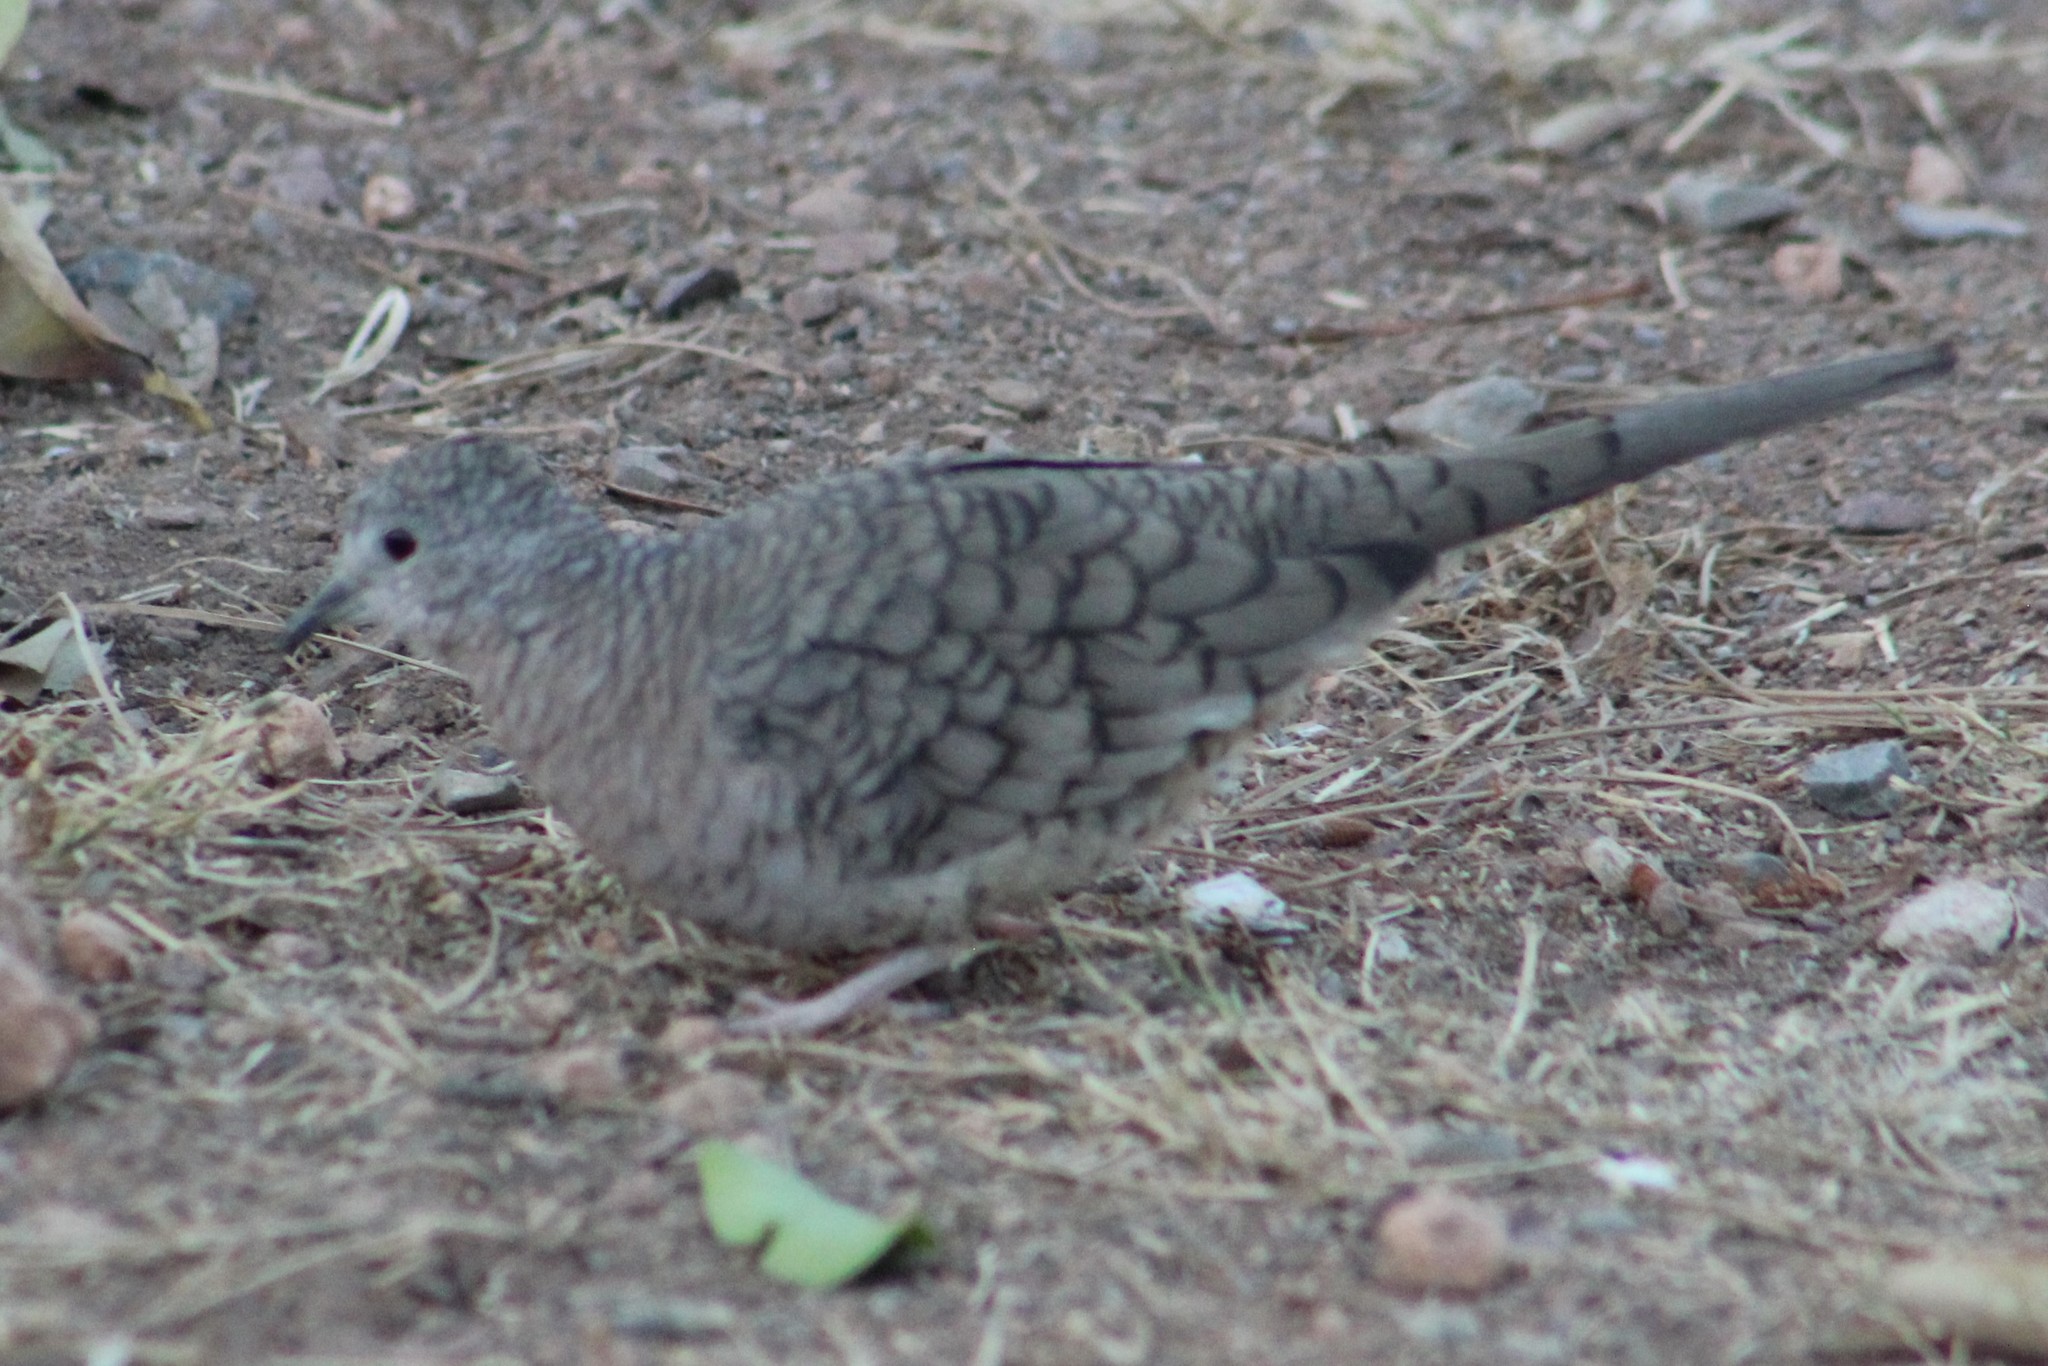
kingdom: Animalia
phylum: Chordata
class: Aves
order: Columbiformes
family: Columbidae
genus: Columbina
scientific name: Columbina inca
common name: Inca dove
